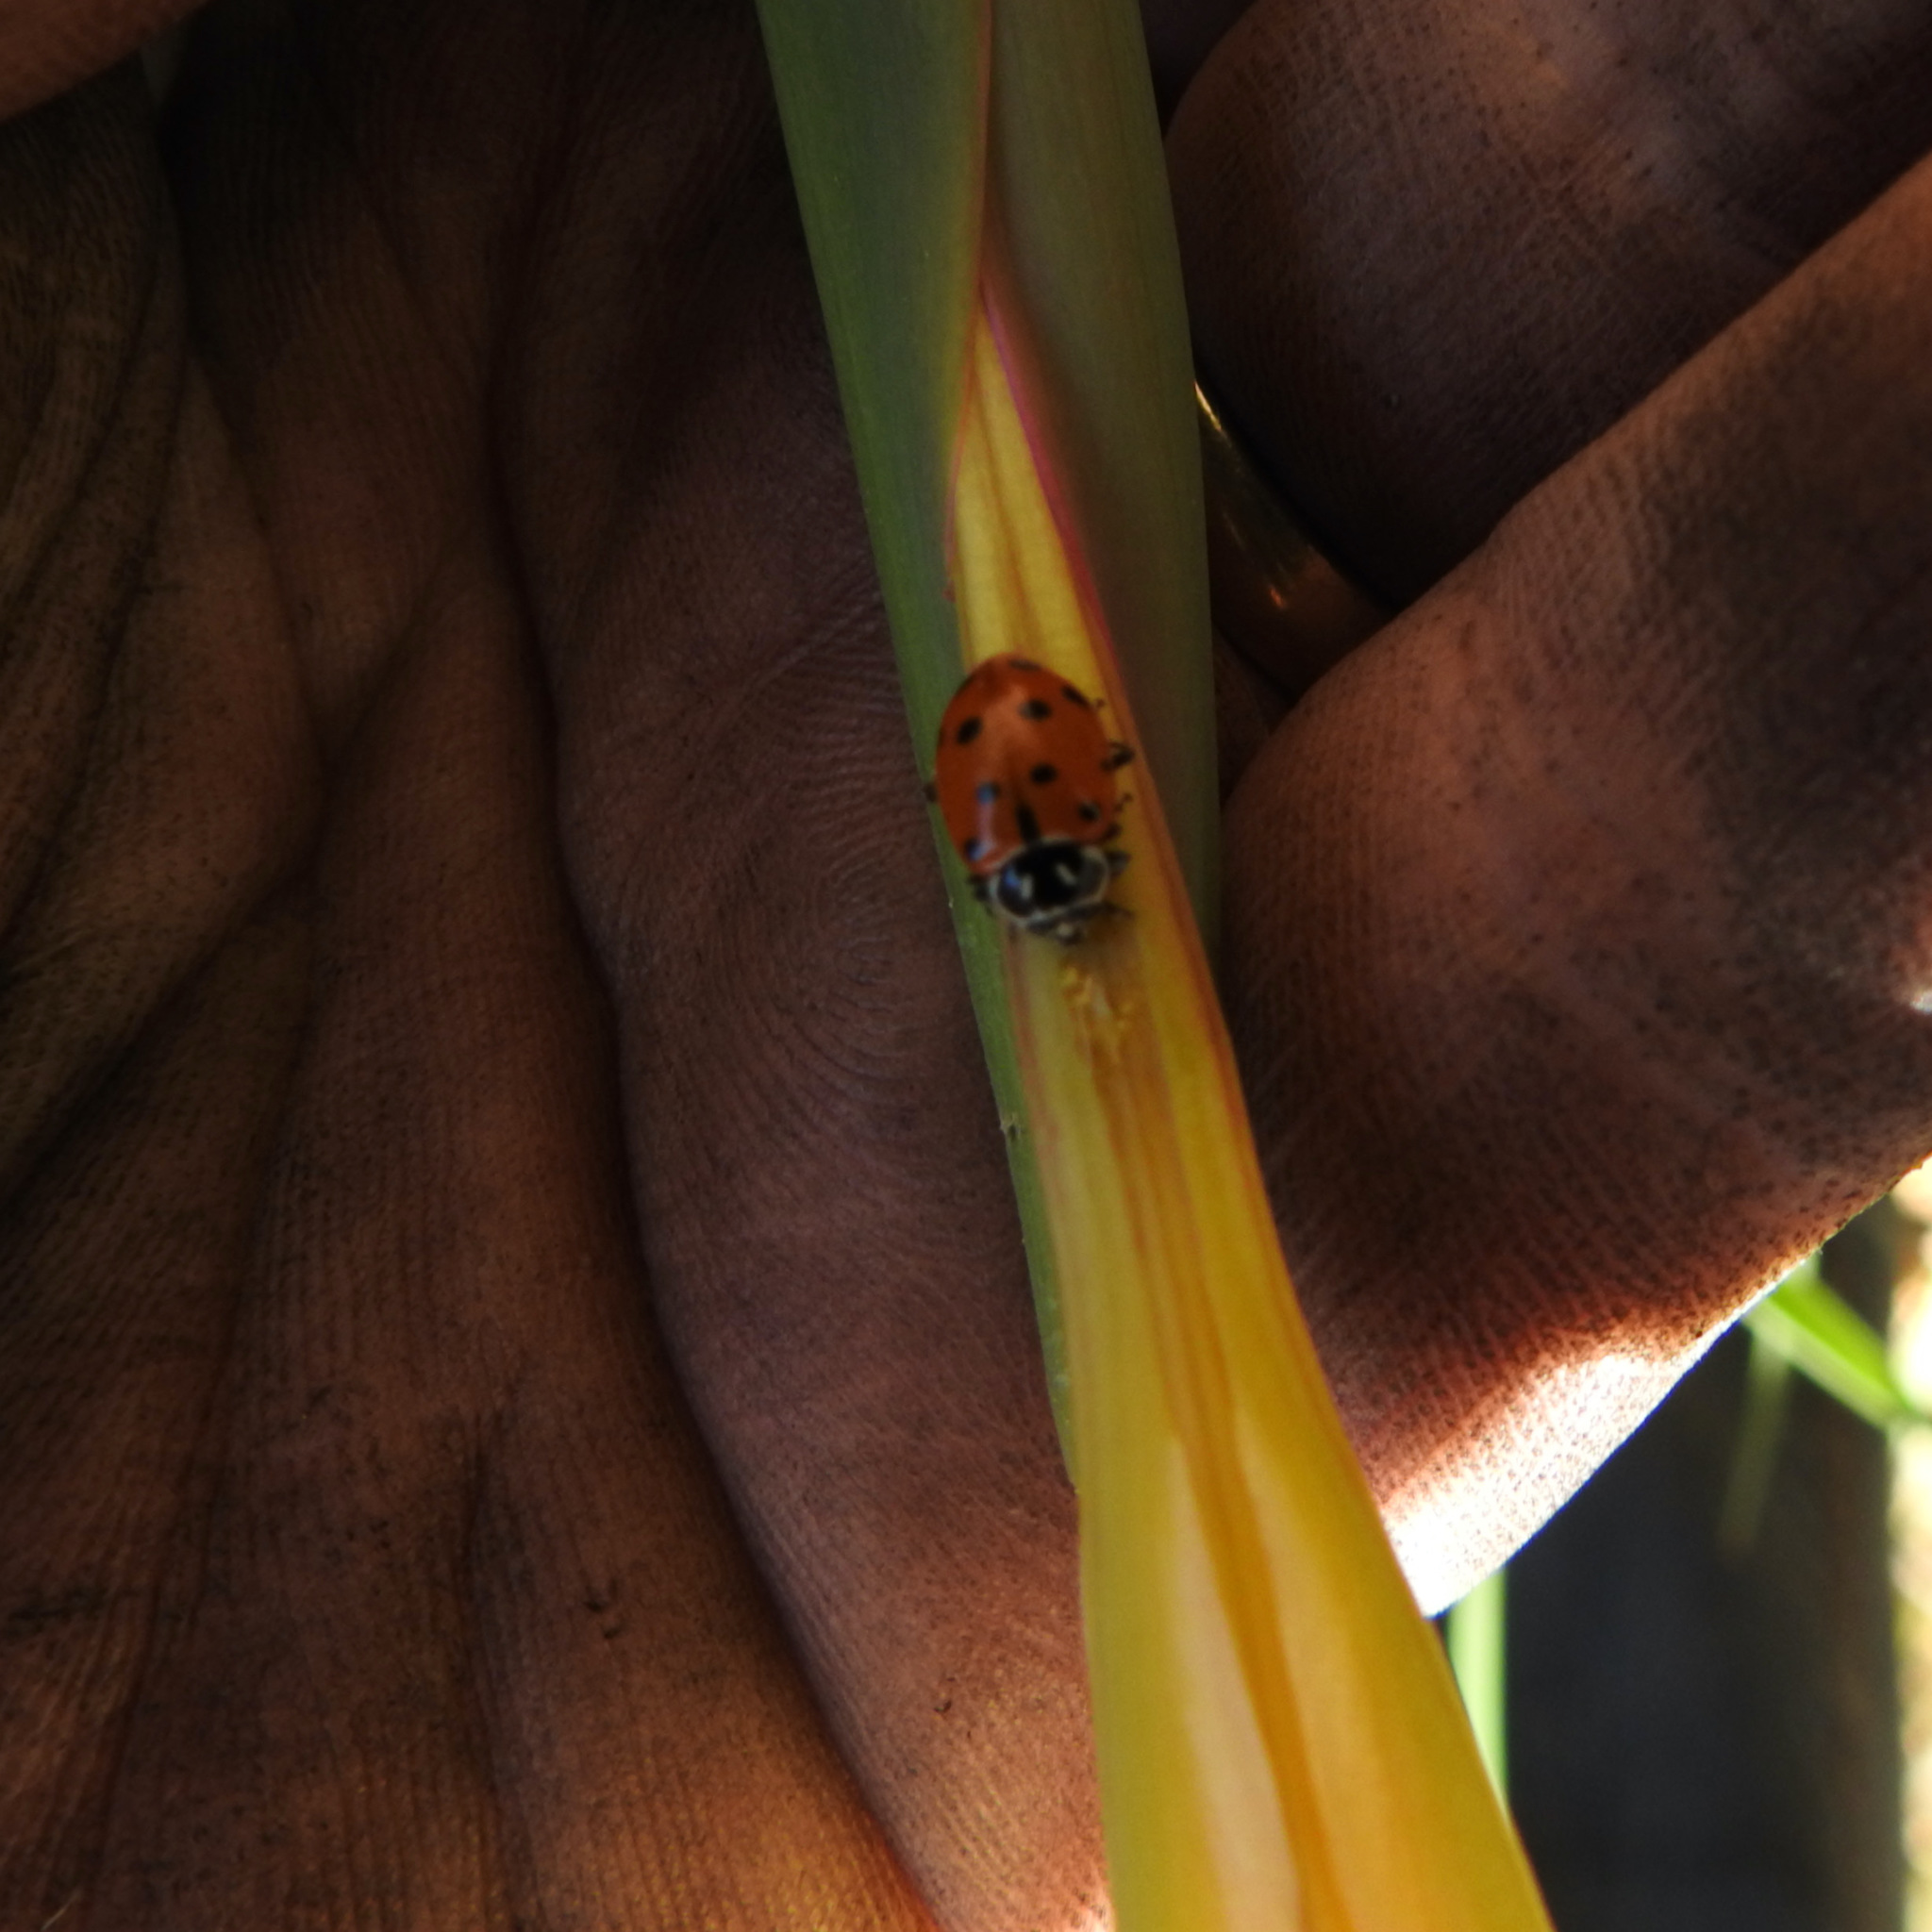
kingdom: Animalia
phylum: Arthropoda
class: Insecta
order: Coleoptera
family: Coccinellidae
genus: Hippodamia
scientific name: Hippodamia convergens
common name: Convergent lady beetle
